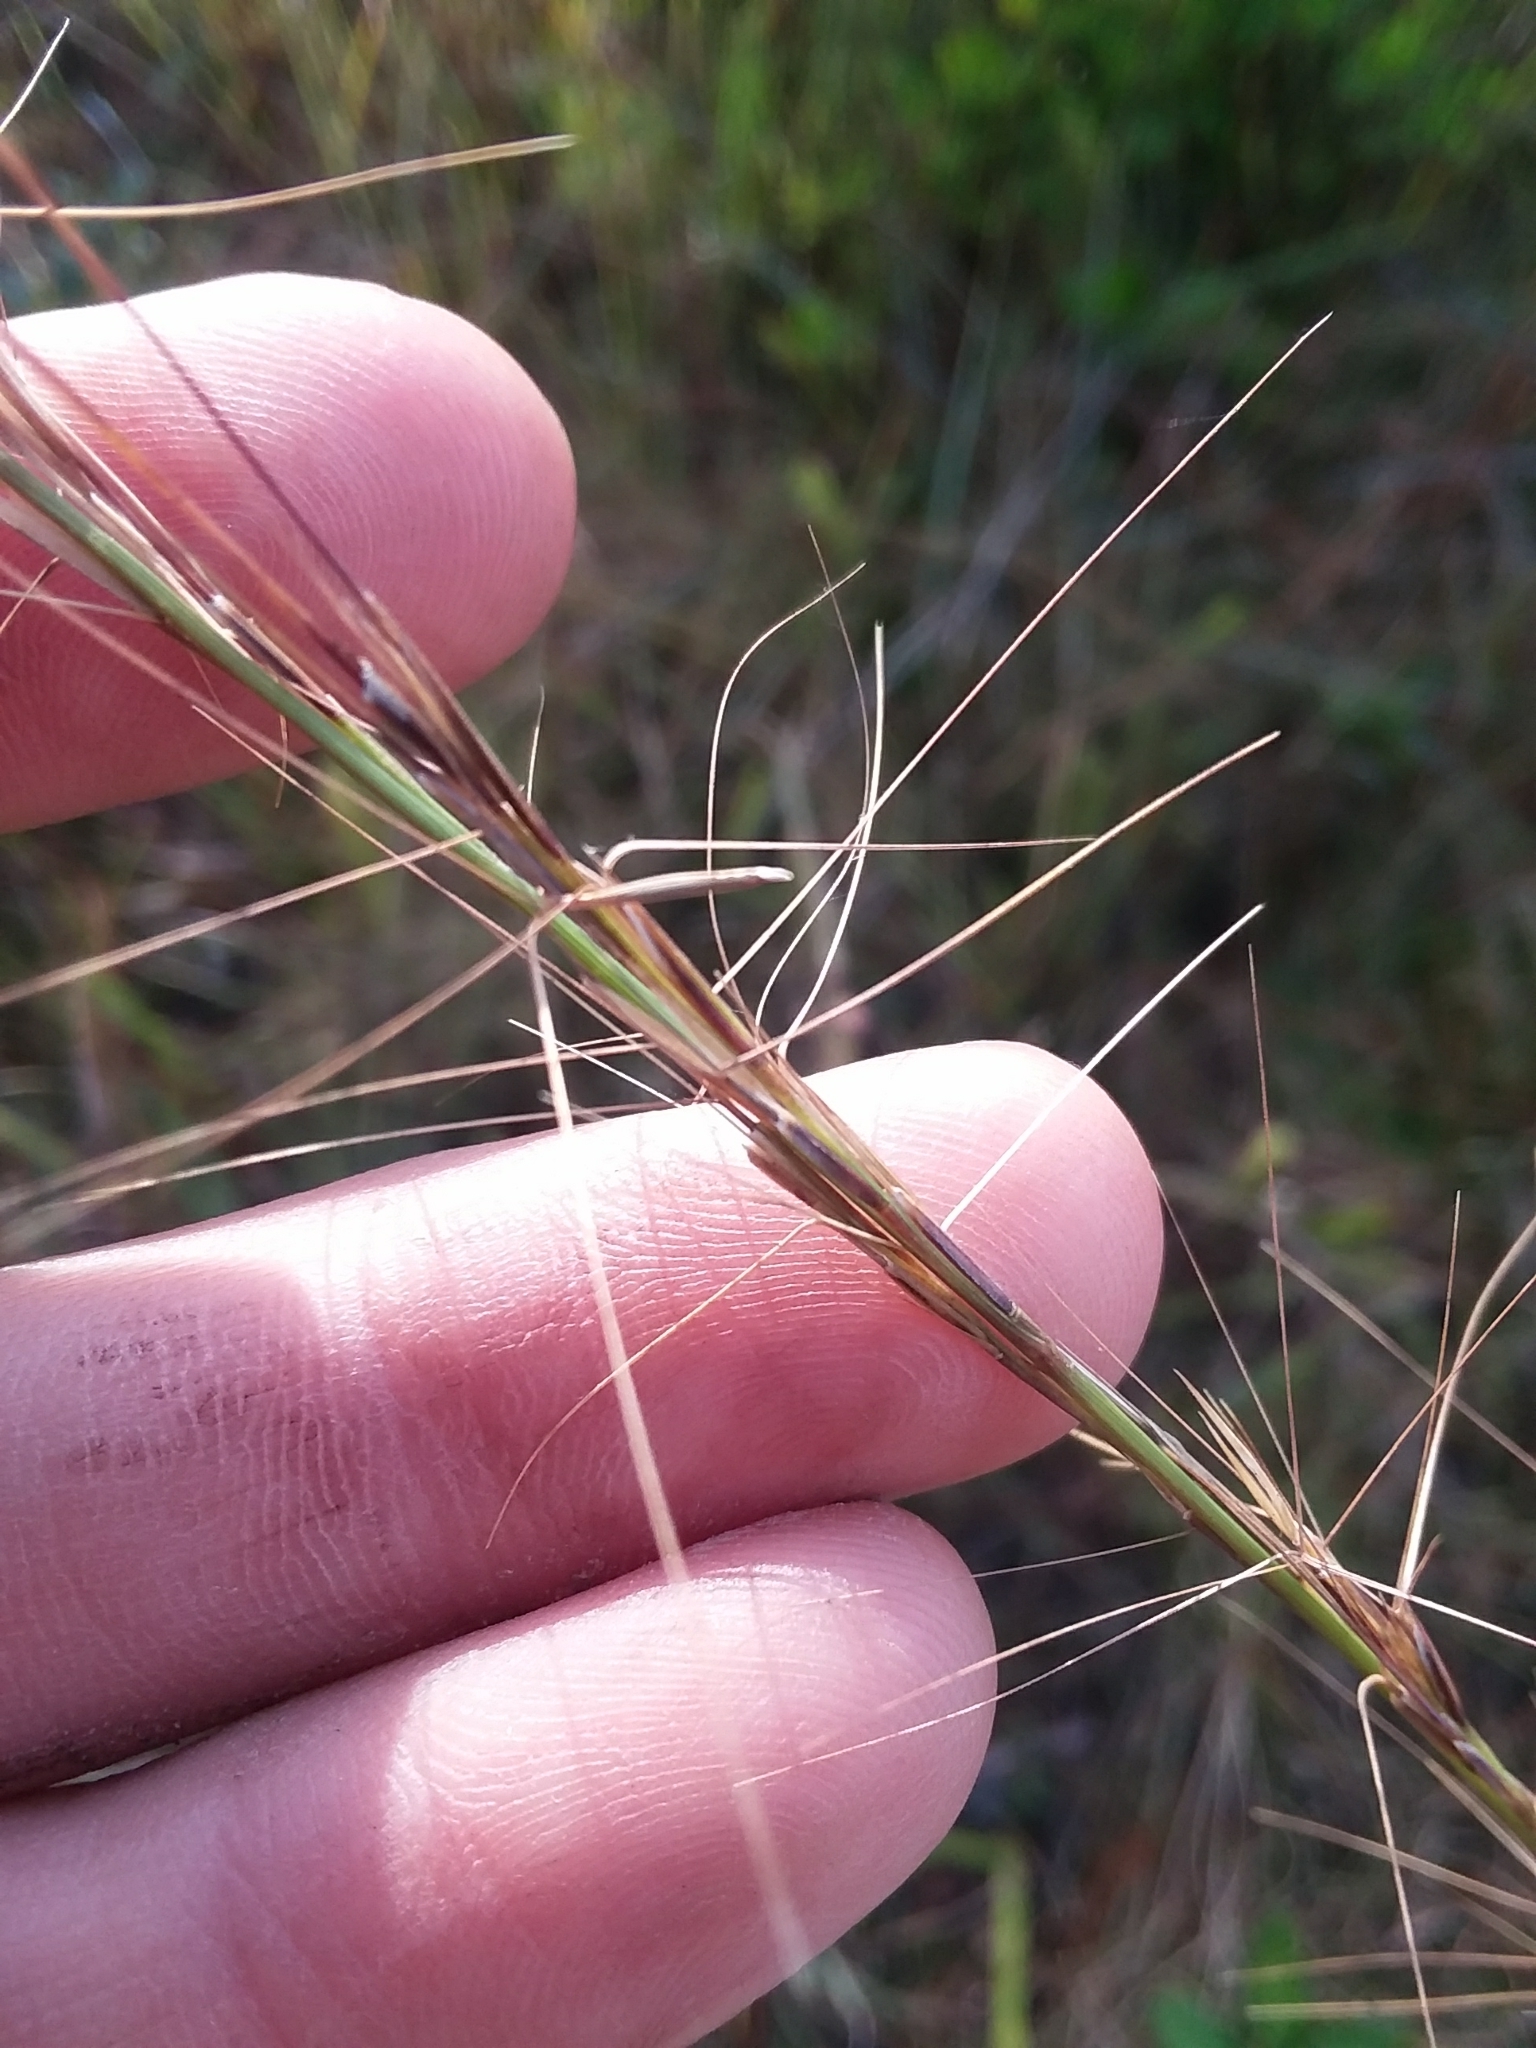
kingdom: Plantae
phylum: Tracheophyta
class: Liliopsida
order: Poales
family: Poaceae
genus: Aristida
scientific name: Aristida palustris
